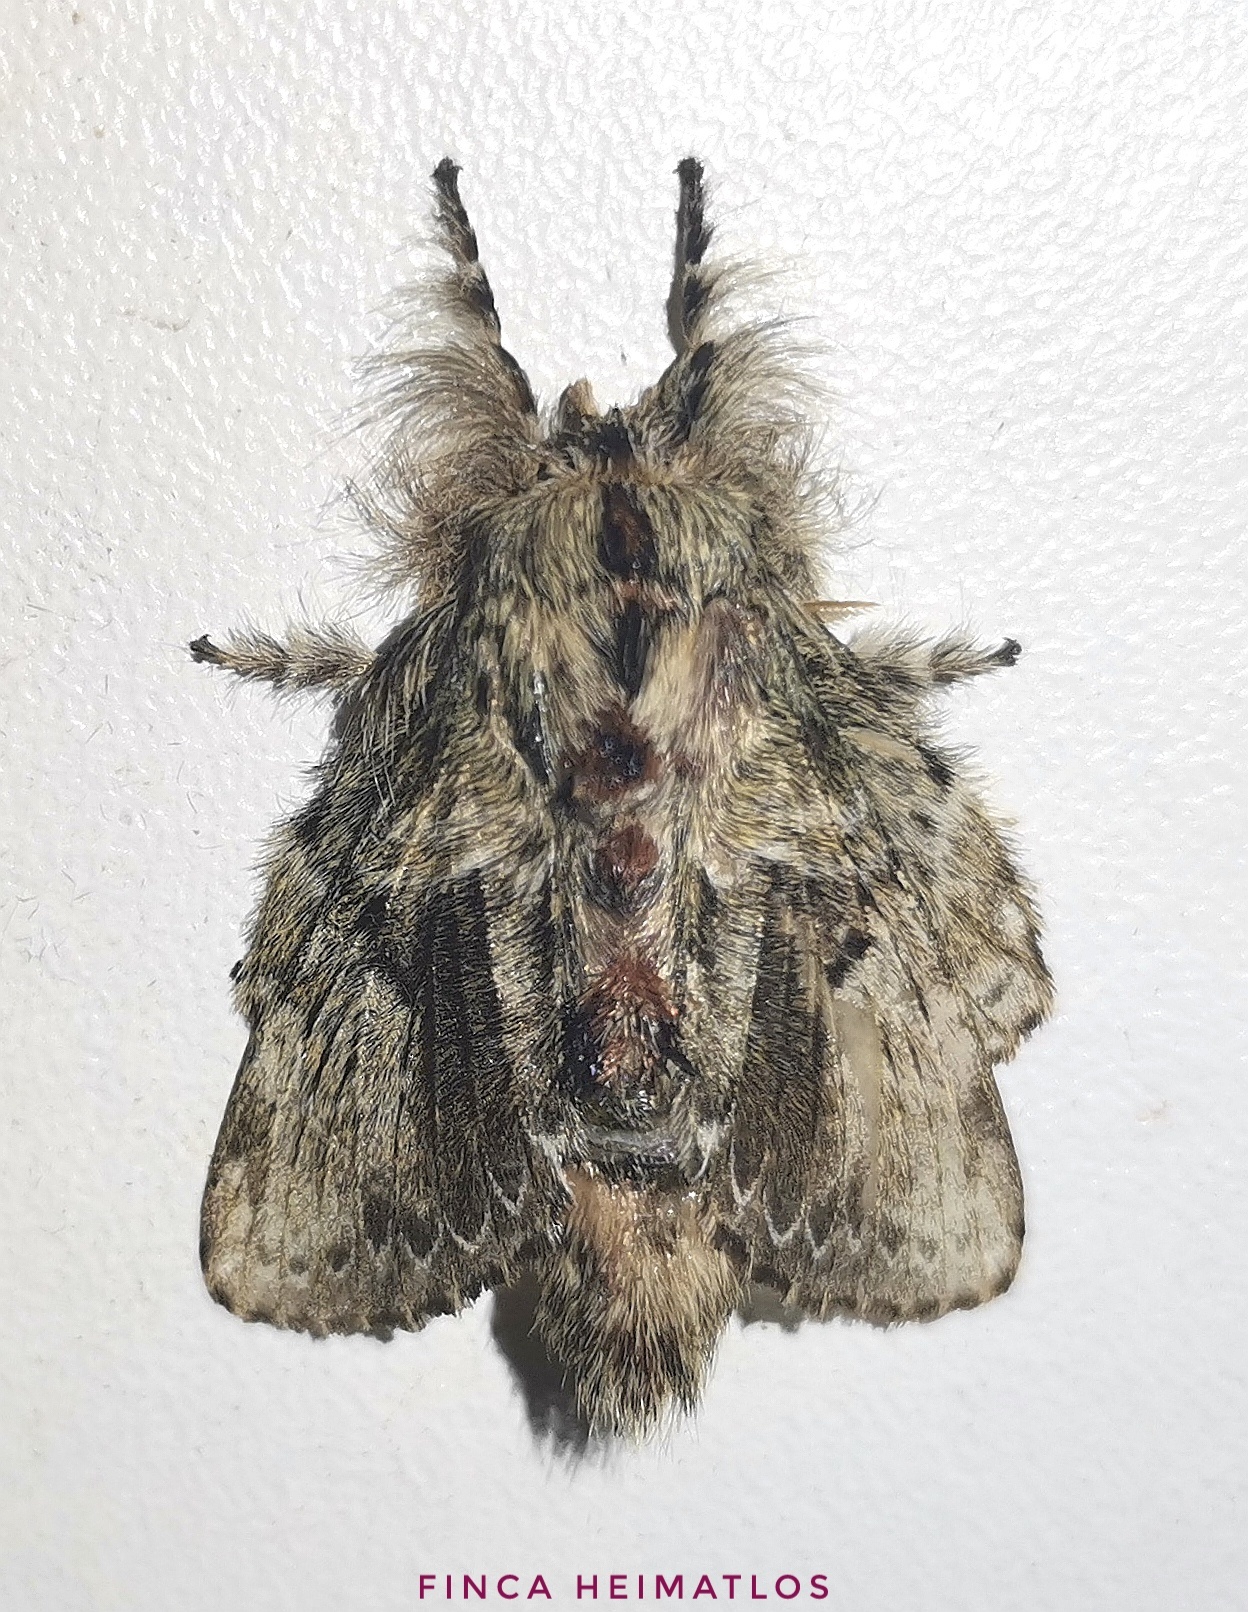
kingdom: Animalia
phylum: Arthropoda
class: Insecta
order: Lepidoptera
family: Lasiocampidae
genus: Euglyphis
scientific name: Euglyphis submarginalis
